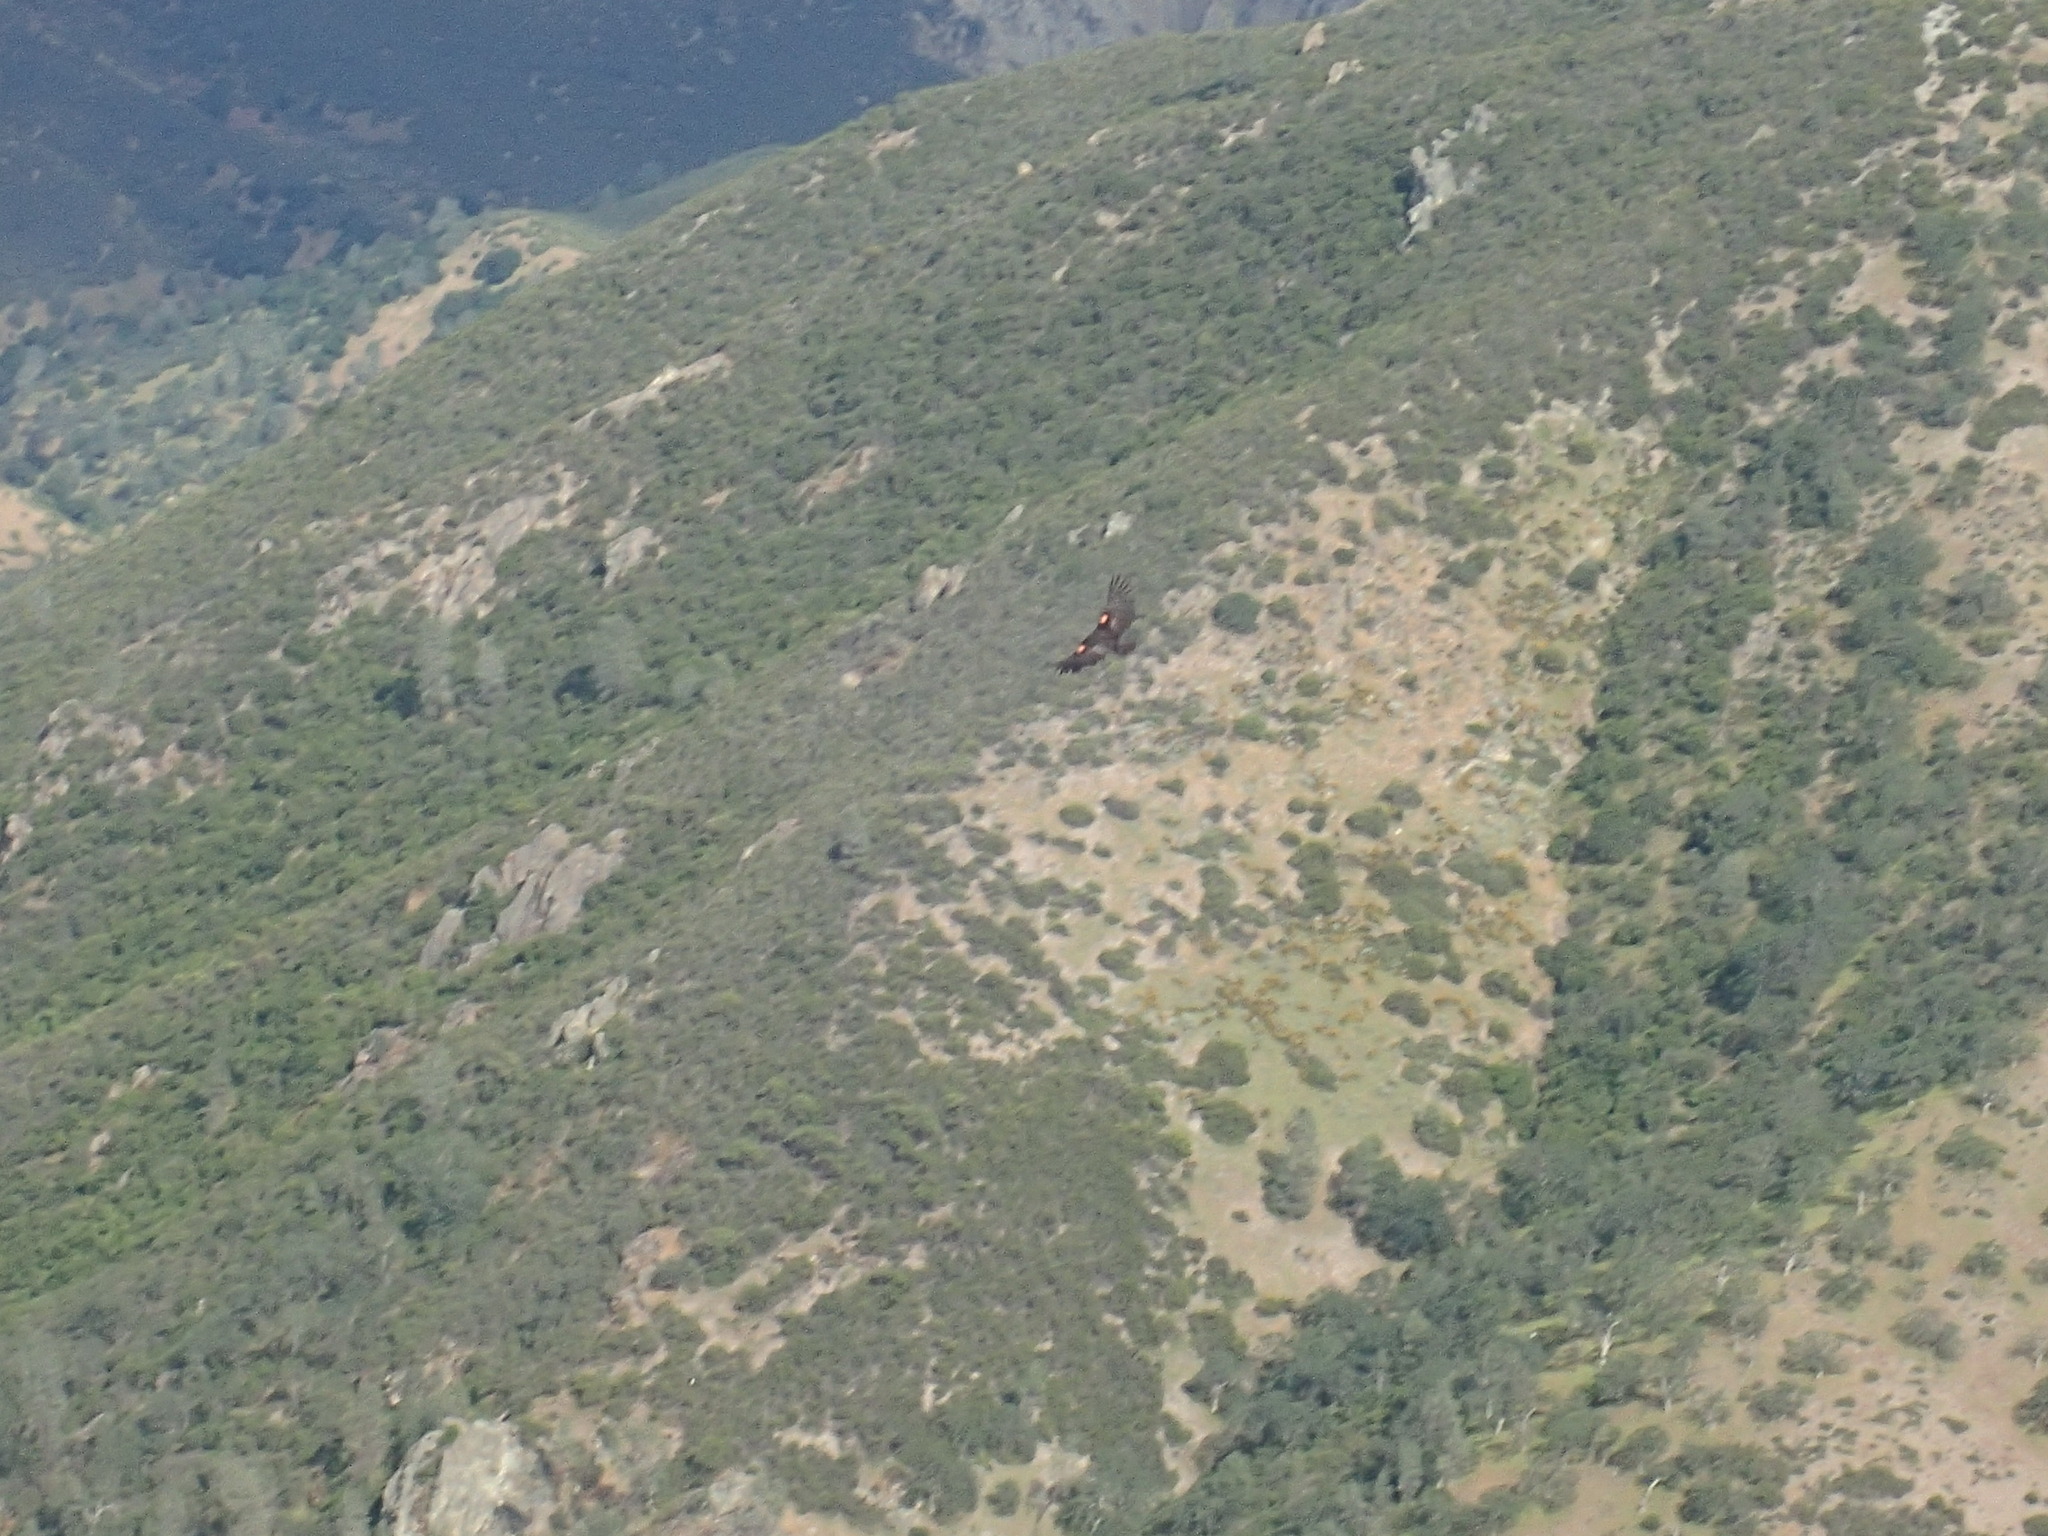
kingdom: Animalia
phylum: Chordata
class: Aves
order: Accipitriformes
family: Cathartidae
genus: Gymnogyps
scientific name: Gymnogyps californianus
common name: California condor
